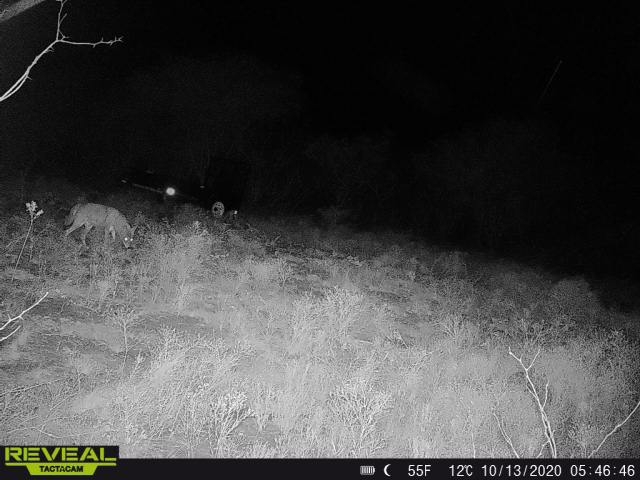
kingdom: Animalia
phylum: Chordata
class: Mammalia
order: Carnivora
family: Canidae
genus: Canis
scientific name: Canis latrans
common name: Coyote
